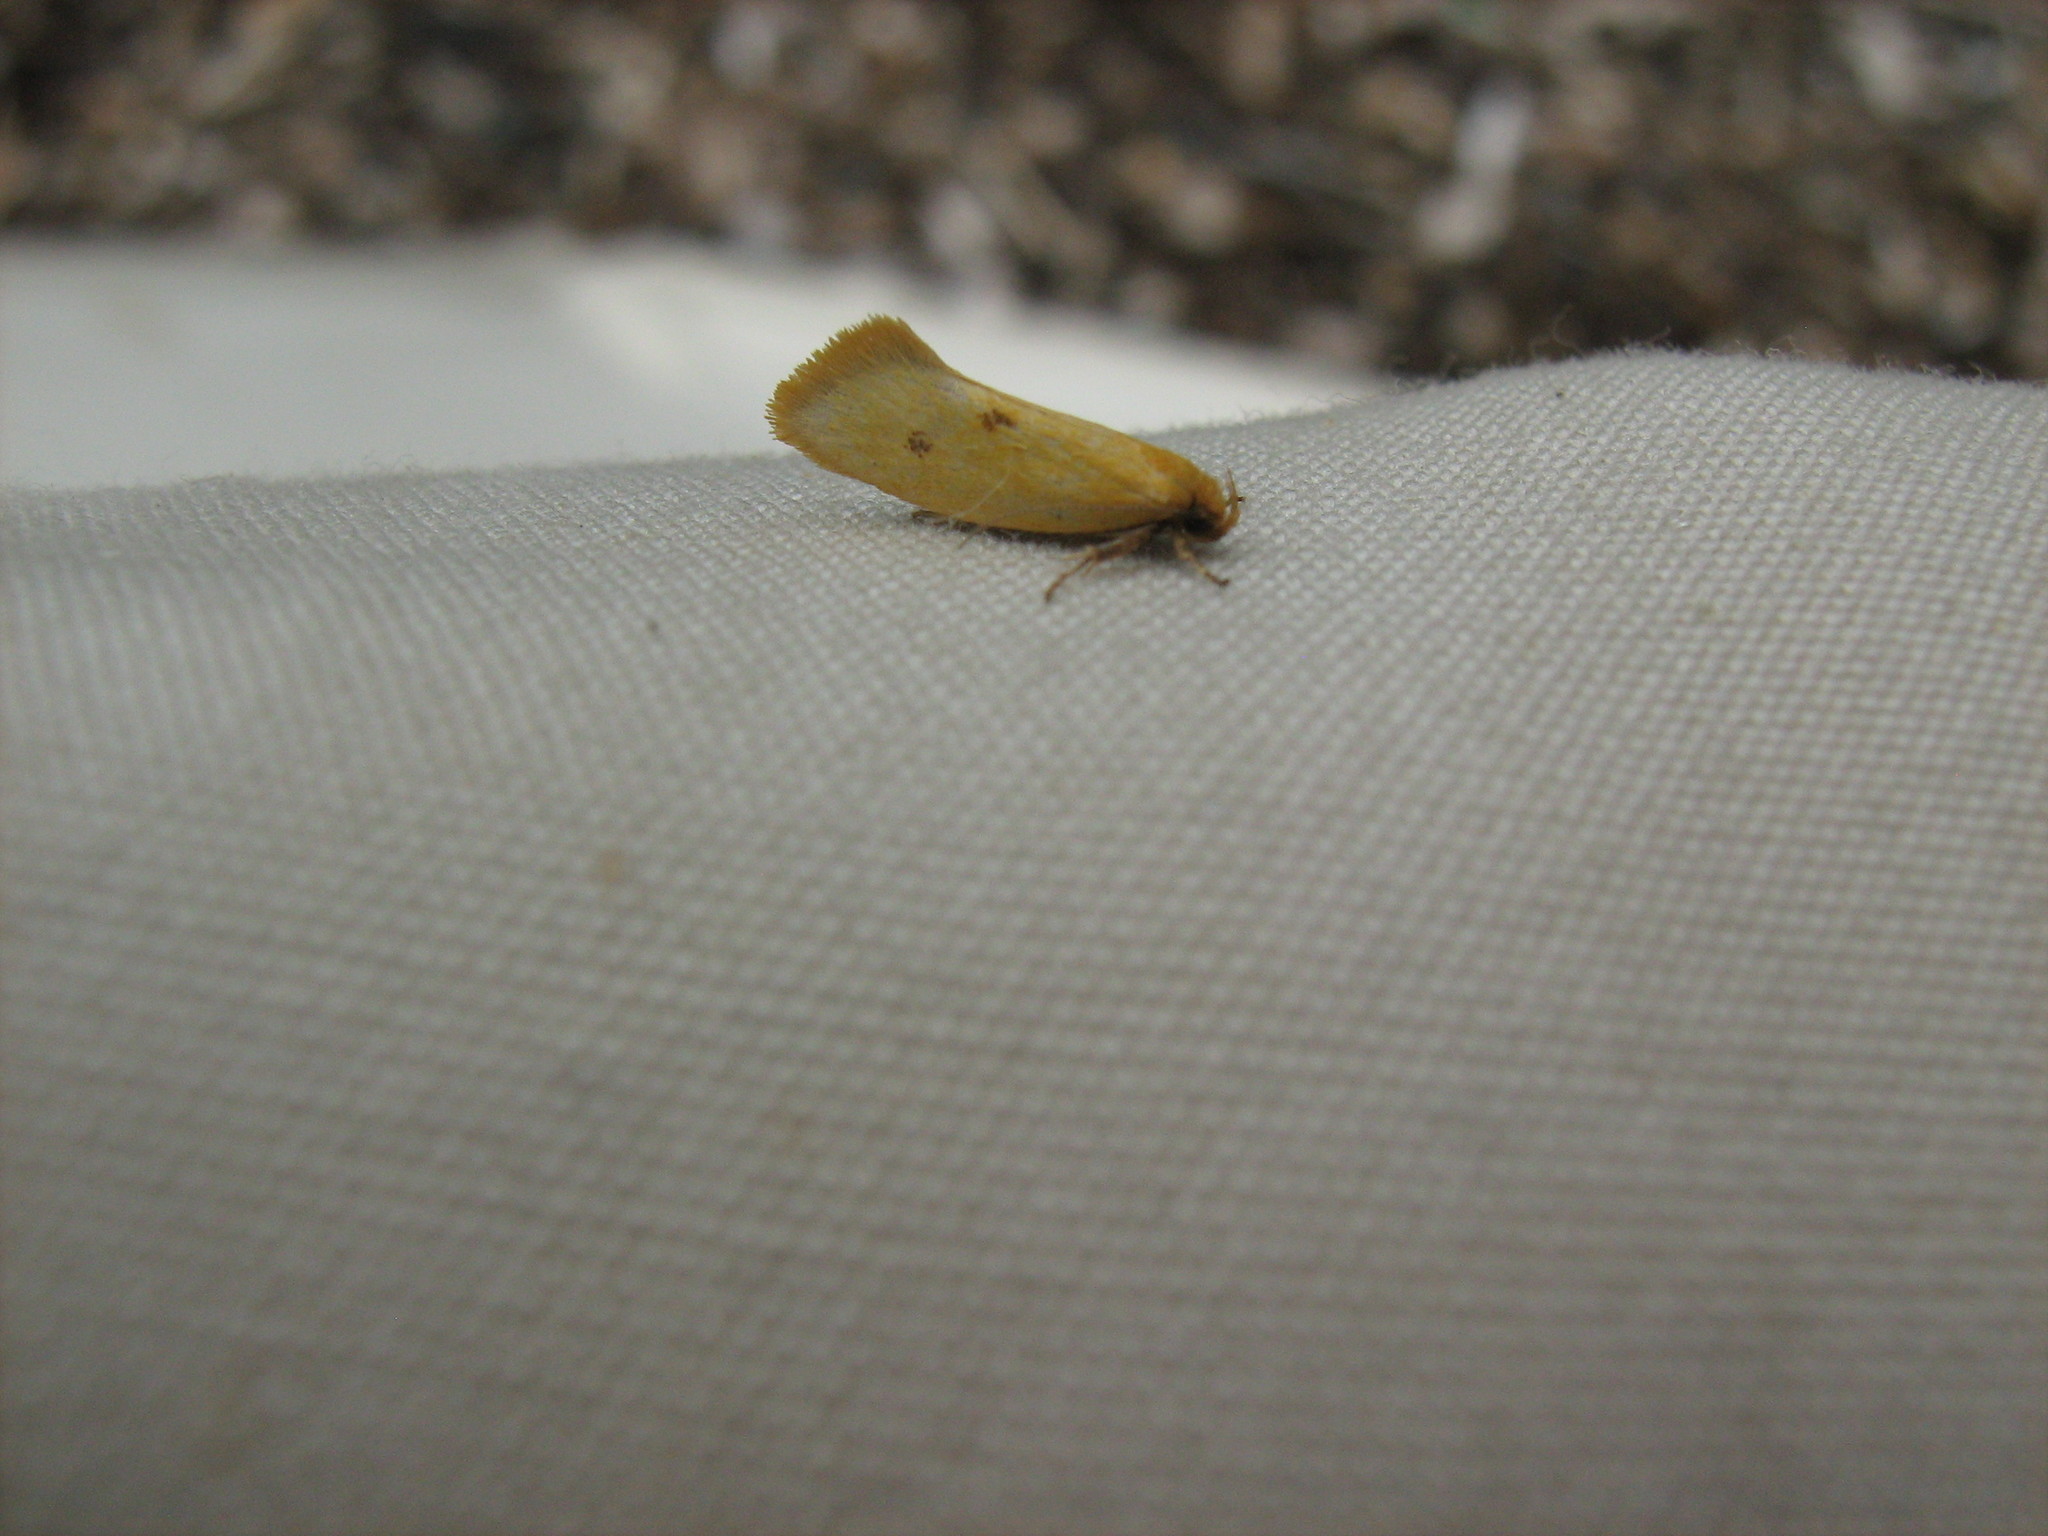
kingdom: Animalia
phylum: Arthropoda
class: Insecta
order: Lepidoptera
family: Oecophoridae
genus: Tingena
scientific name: Tingena grata
